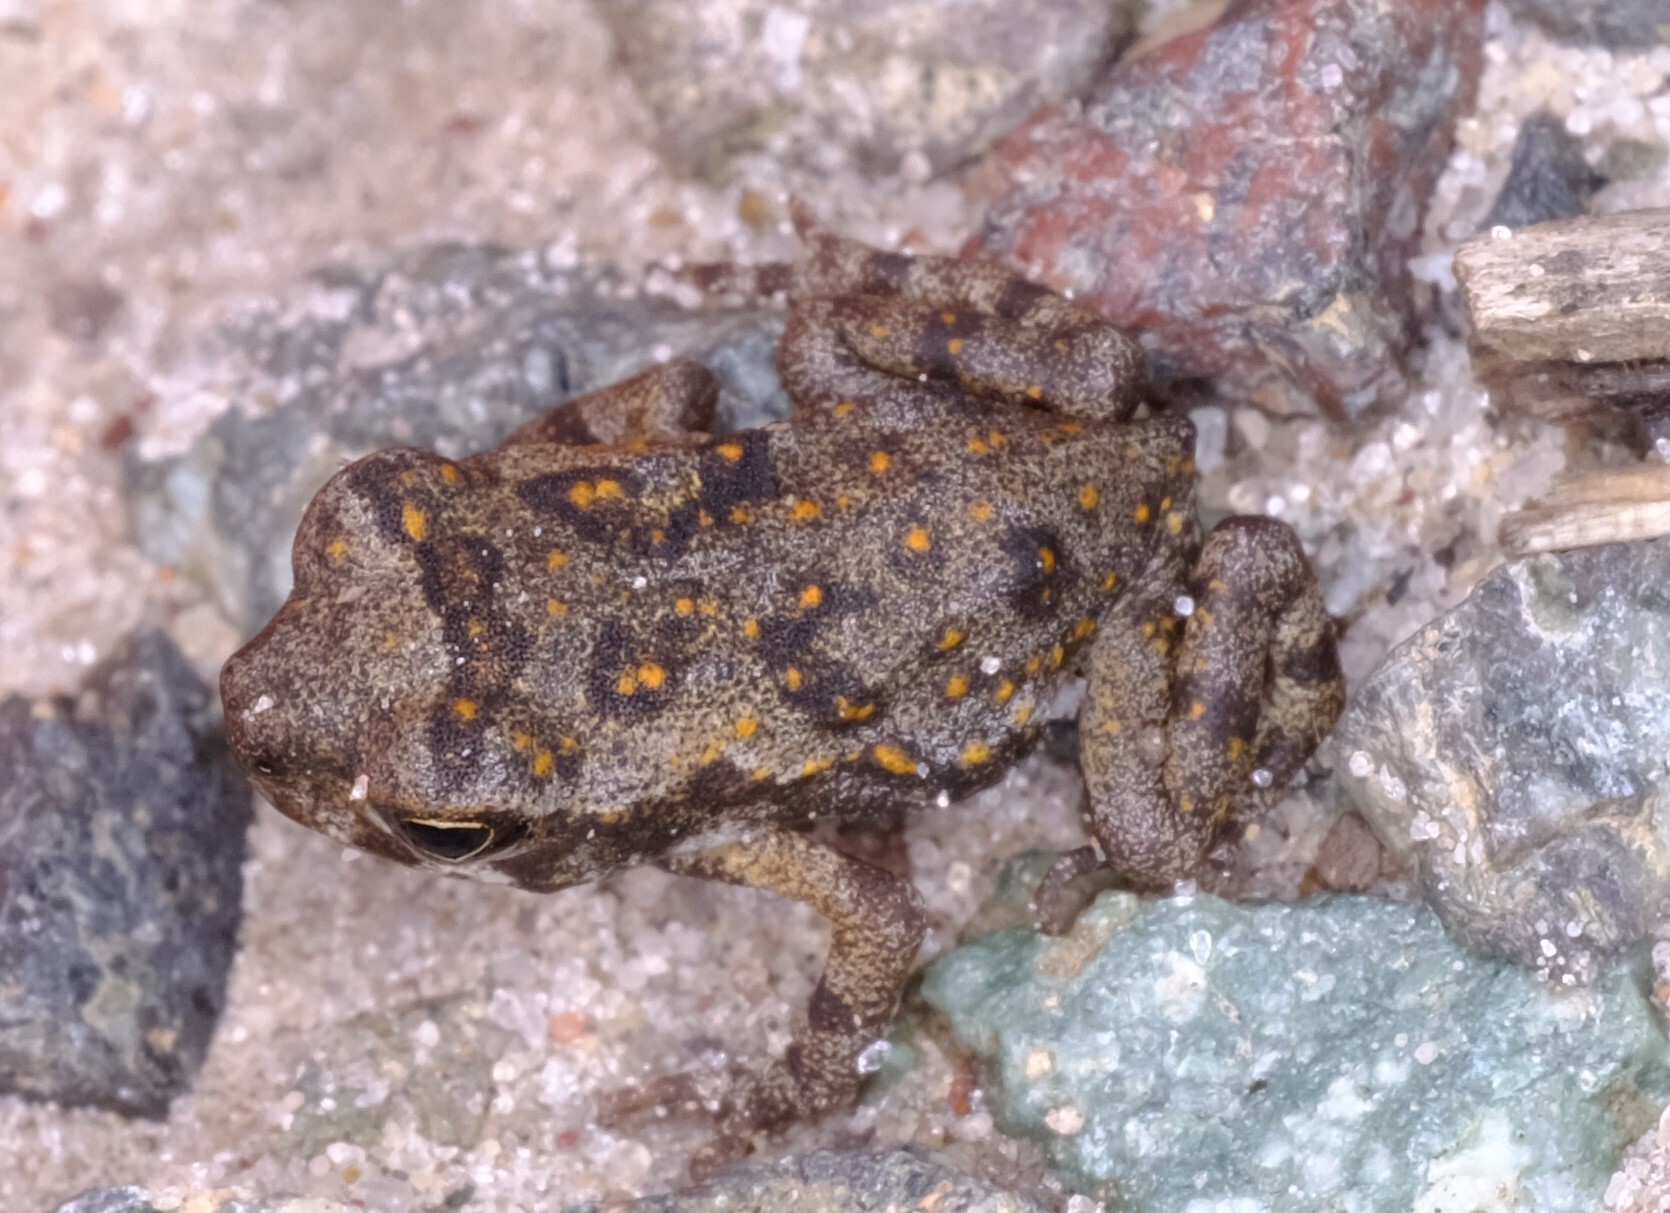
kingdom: Animalia
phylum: Chordata
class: Amphibia
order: Anura
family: Bufonidae
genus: Rhinella
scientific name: Rhinella marina
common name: Cane toad
